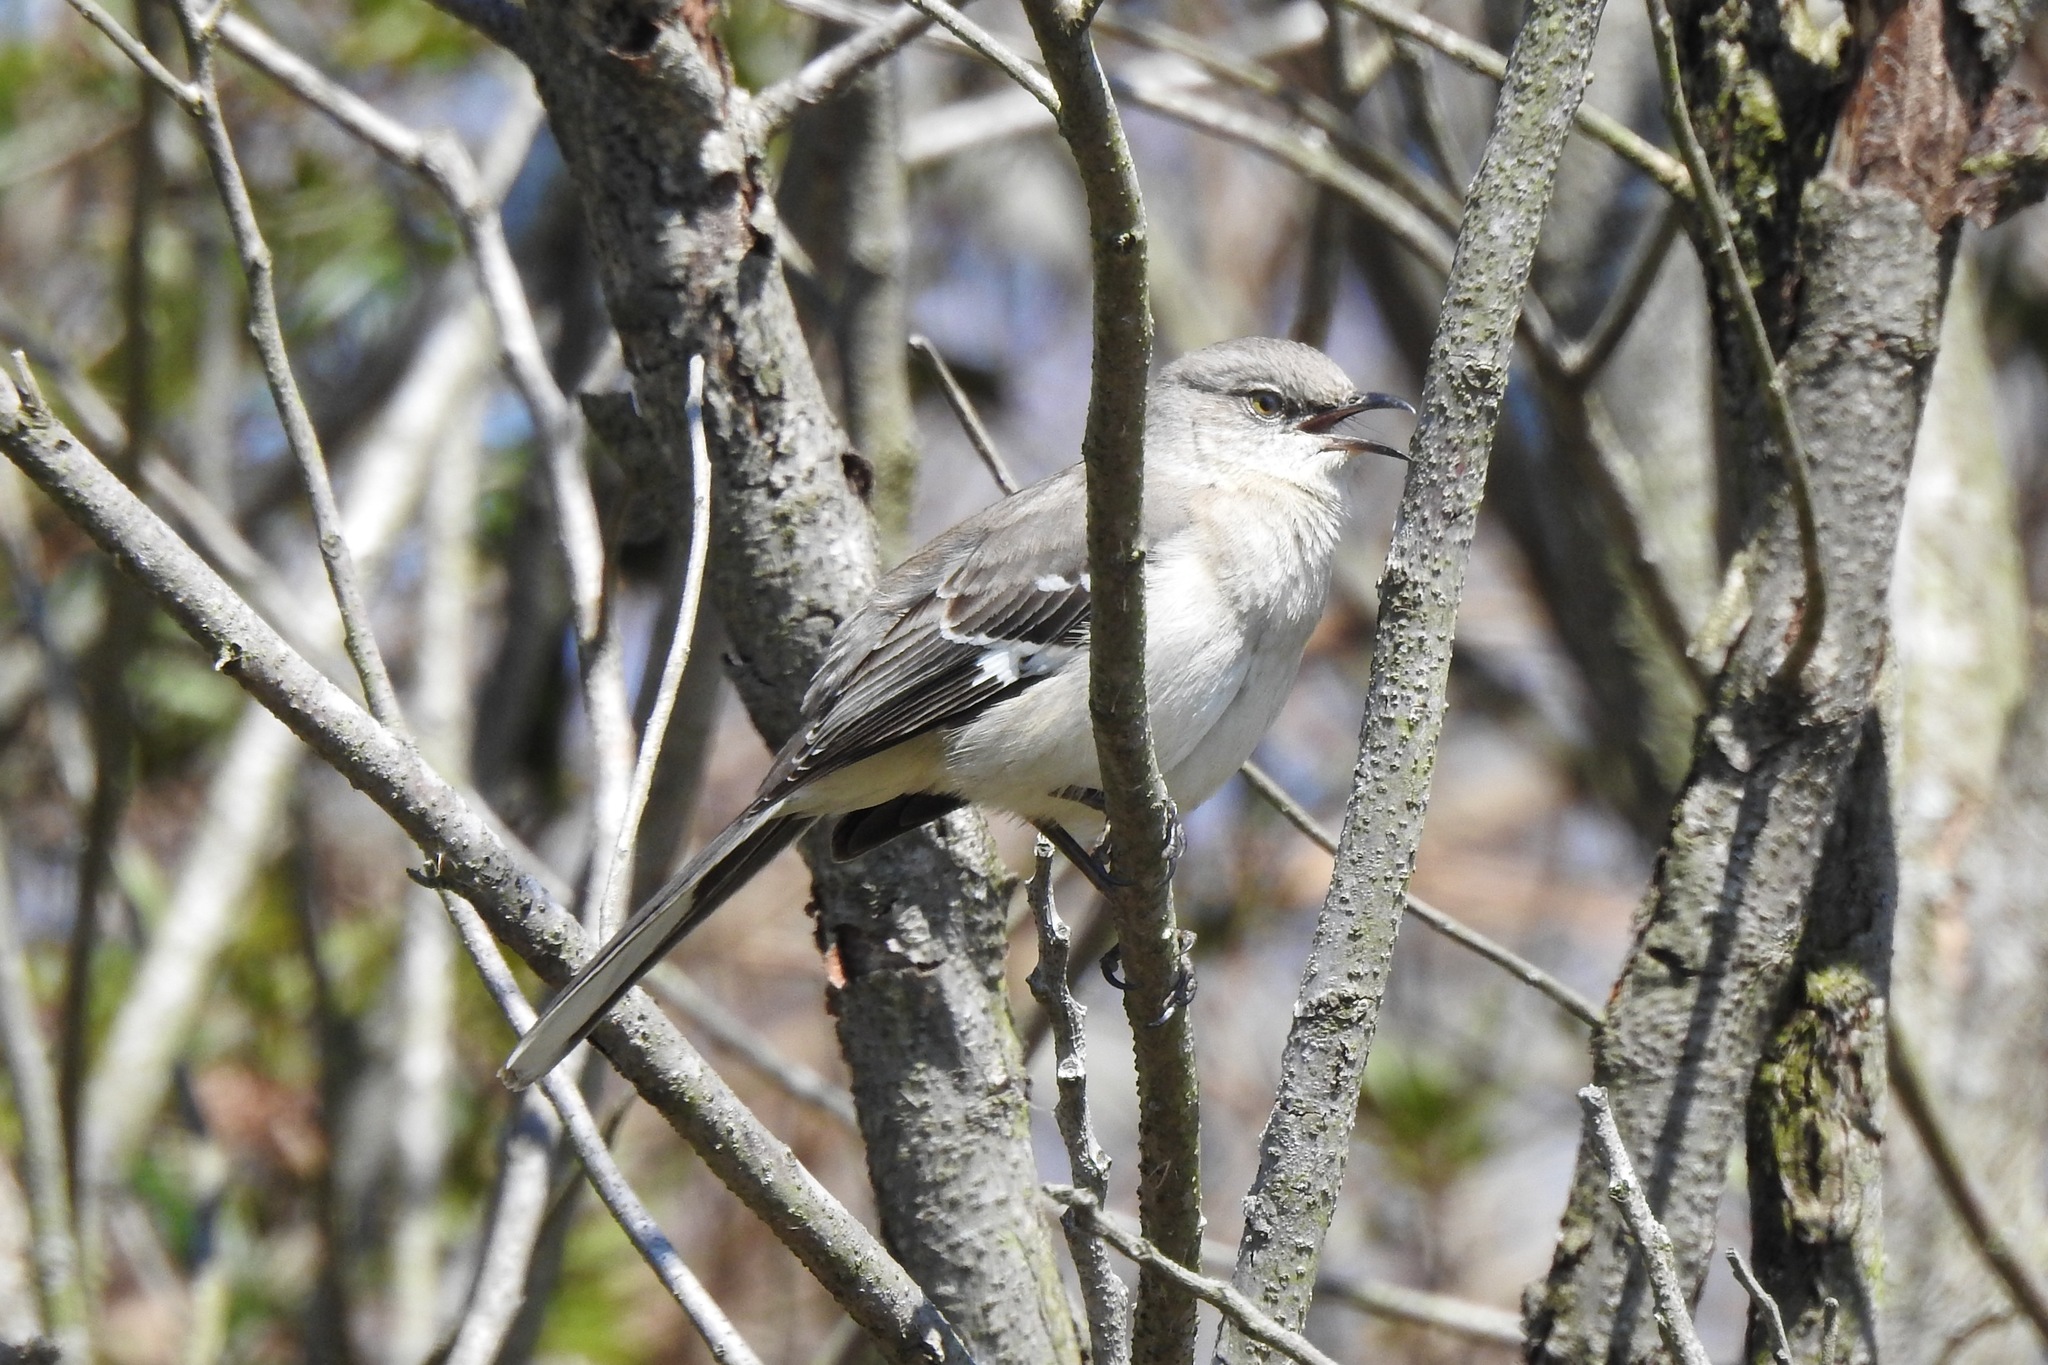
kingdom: Animalia
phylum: Chordata
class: Aves
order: Passeriformes
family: Mimidae
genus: Mimus
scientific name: Mimus polyglottos
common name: Northern mockingbird
